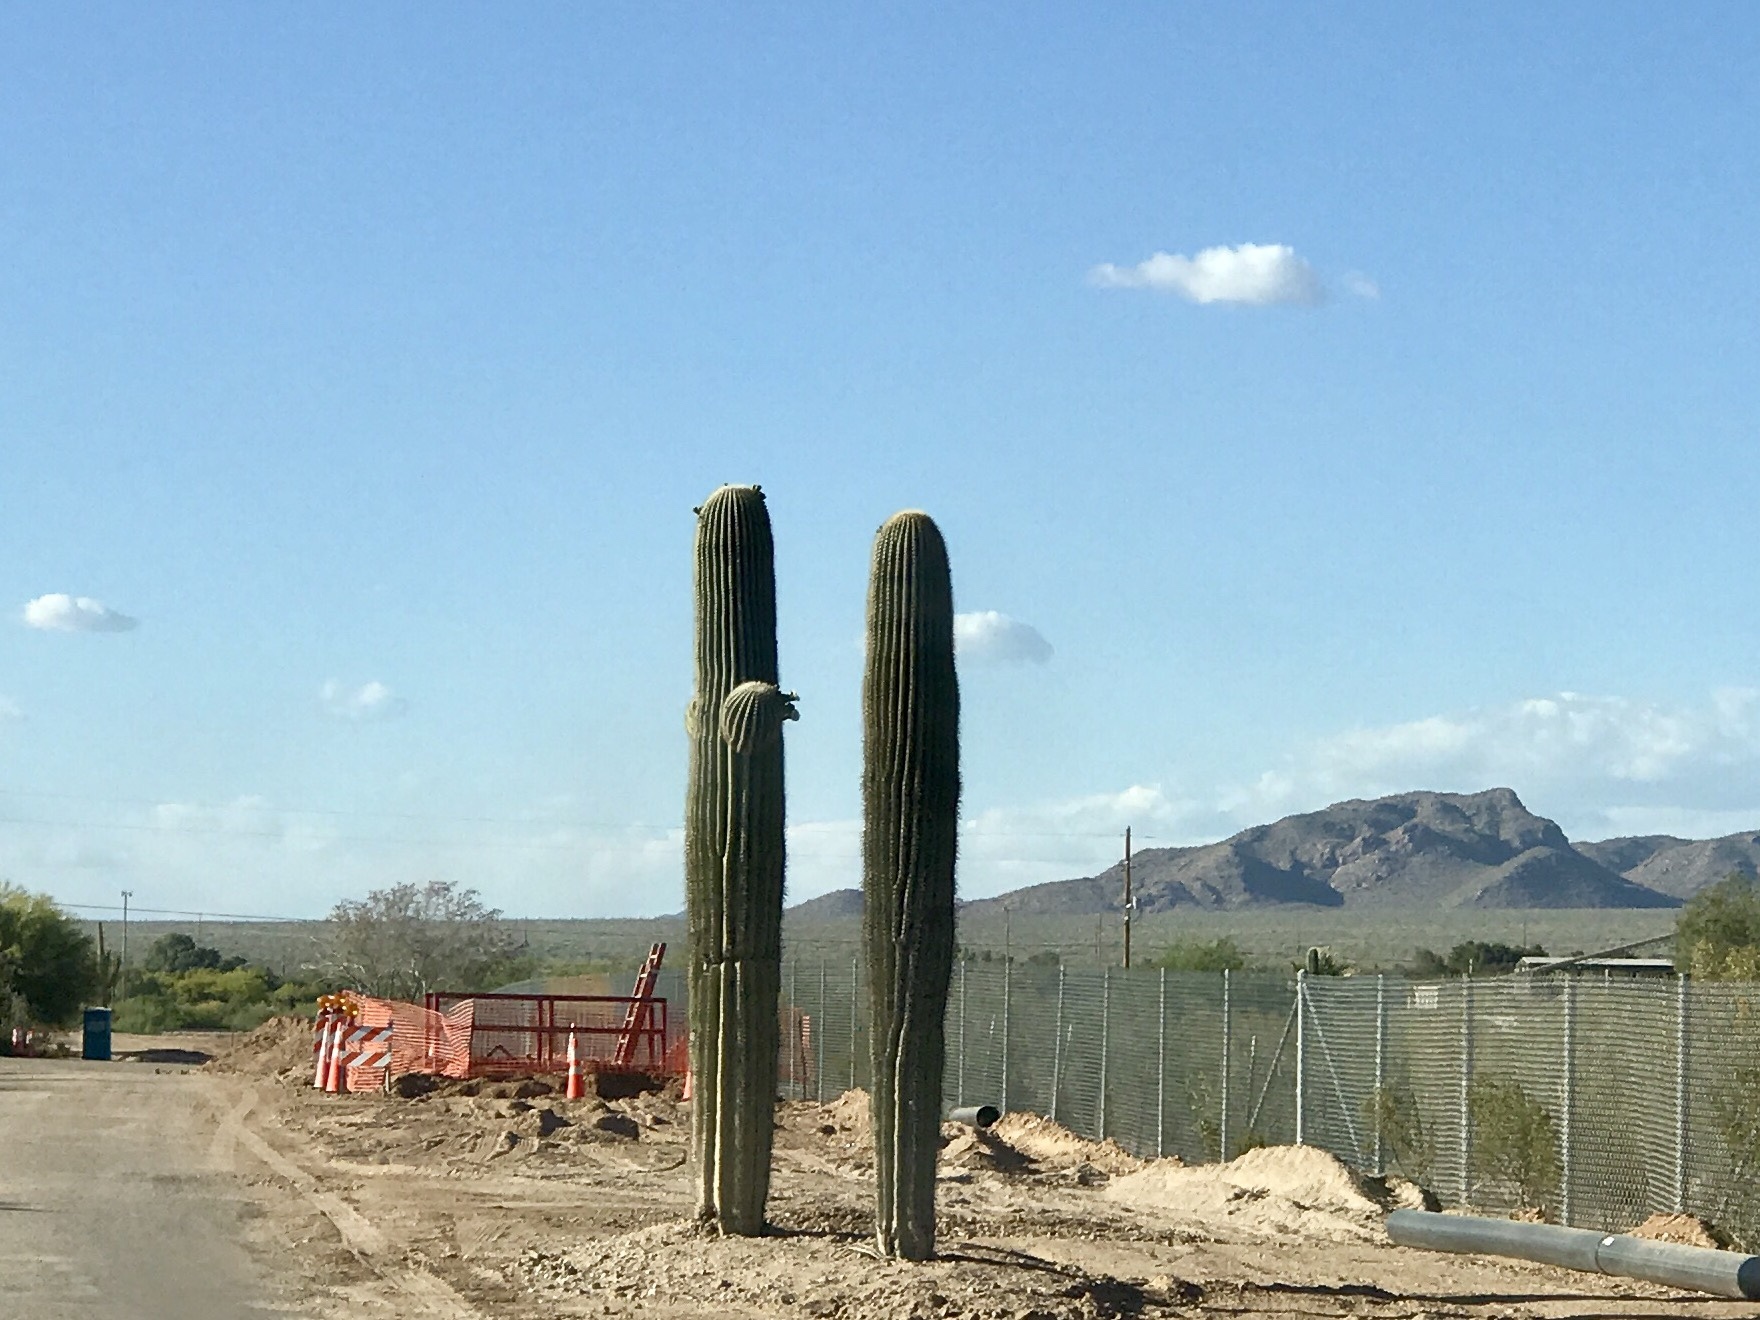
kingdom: Plantae
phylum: Tracheophyta
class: Magnoliopsida
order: Caryophyllales
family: Cactaceae
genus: Carnegiea
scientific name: Carnegiea gigantea
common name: Saguaro
